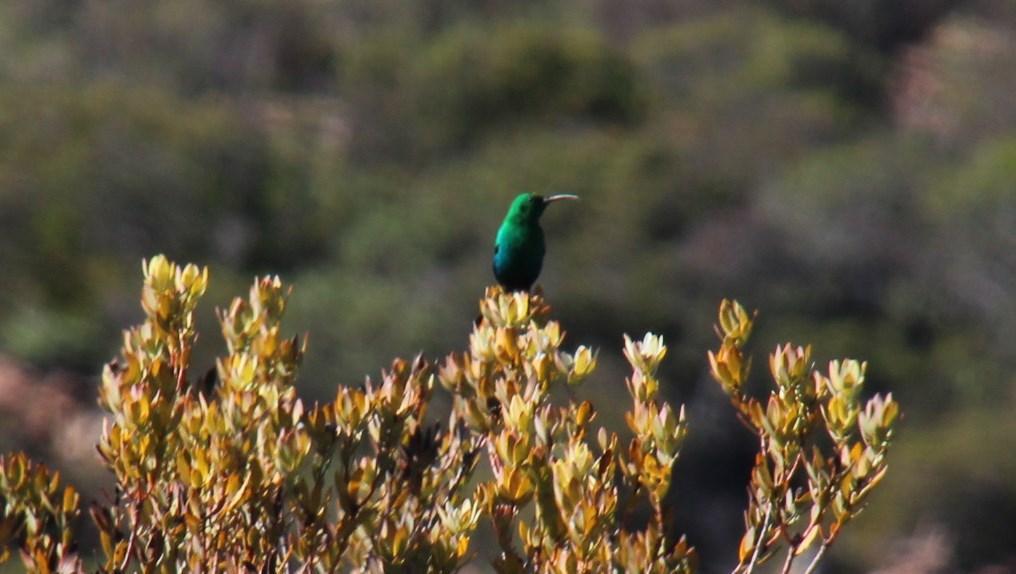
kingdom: Animalia
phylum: Chordata
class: Aves
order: Passeriformes
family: Nectariniidae
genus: Nectarinia
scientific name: Nectarinia famosa
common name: Malachite sunbird
